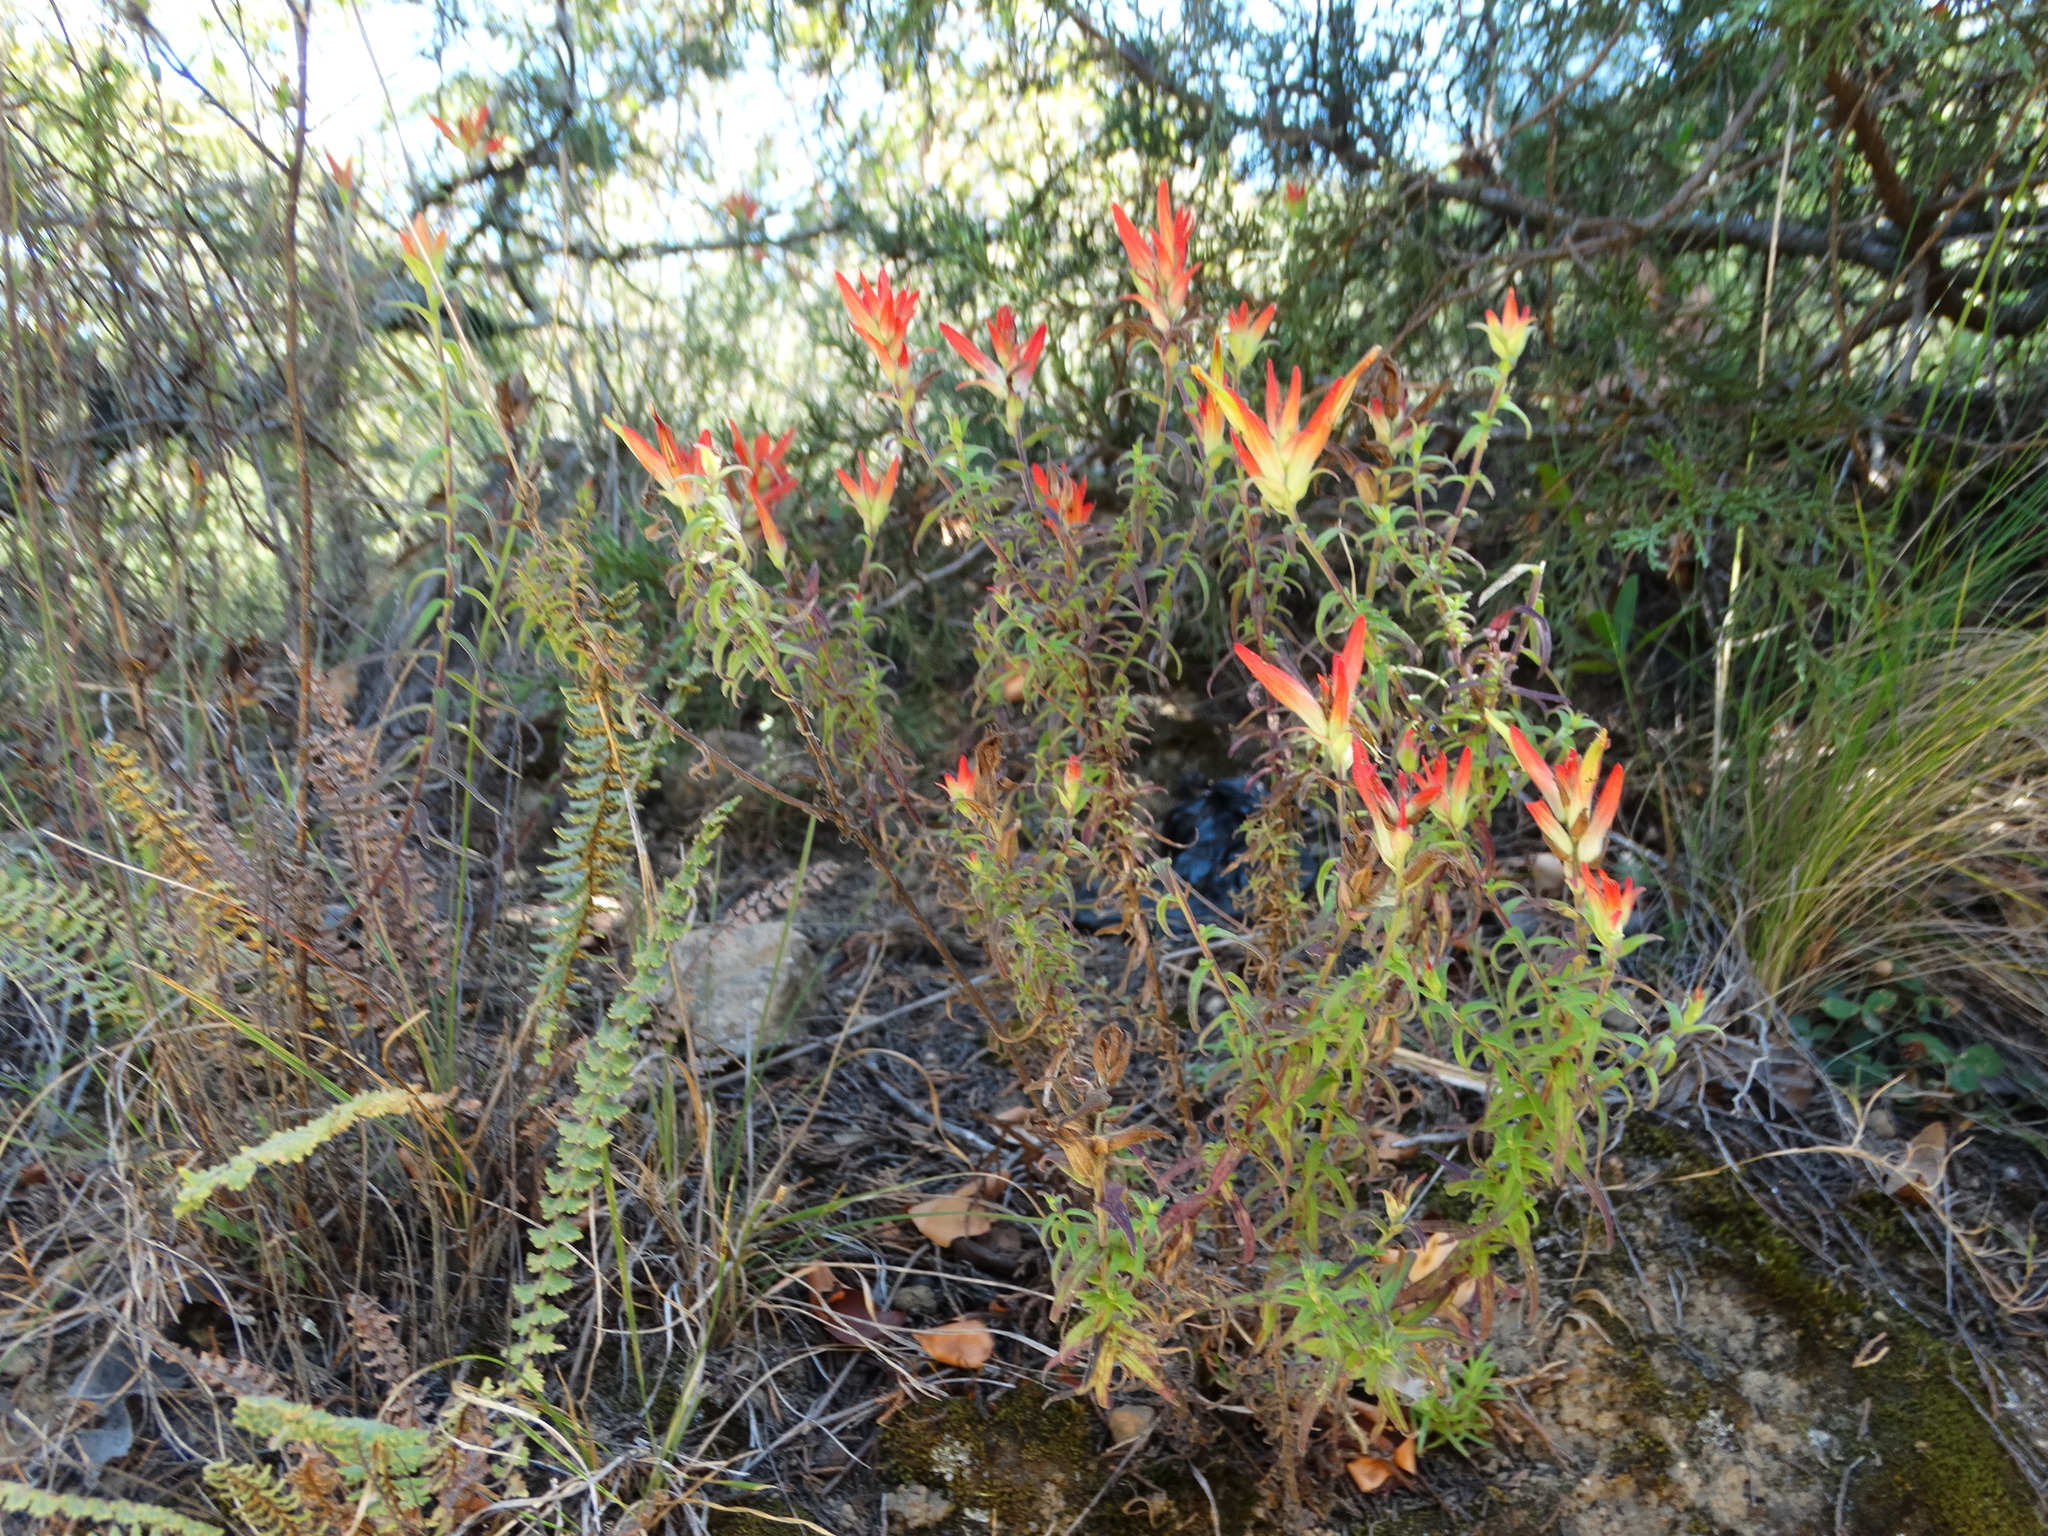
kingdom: Plantae
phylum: Tracheophyta
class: Magnoliopsida
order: Lamiales
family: Orobanchaceae
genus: Castilleja
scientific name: Castilleja tenuiflora
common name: Santa catalina indian paintbrush
